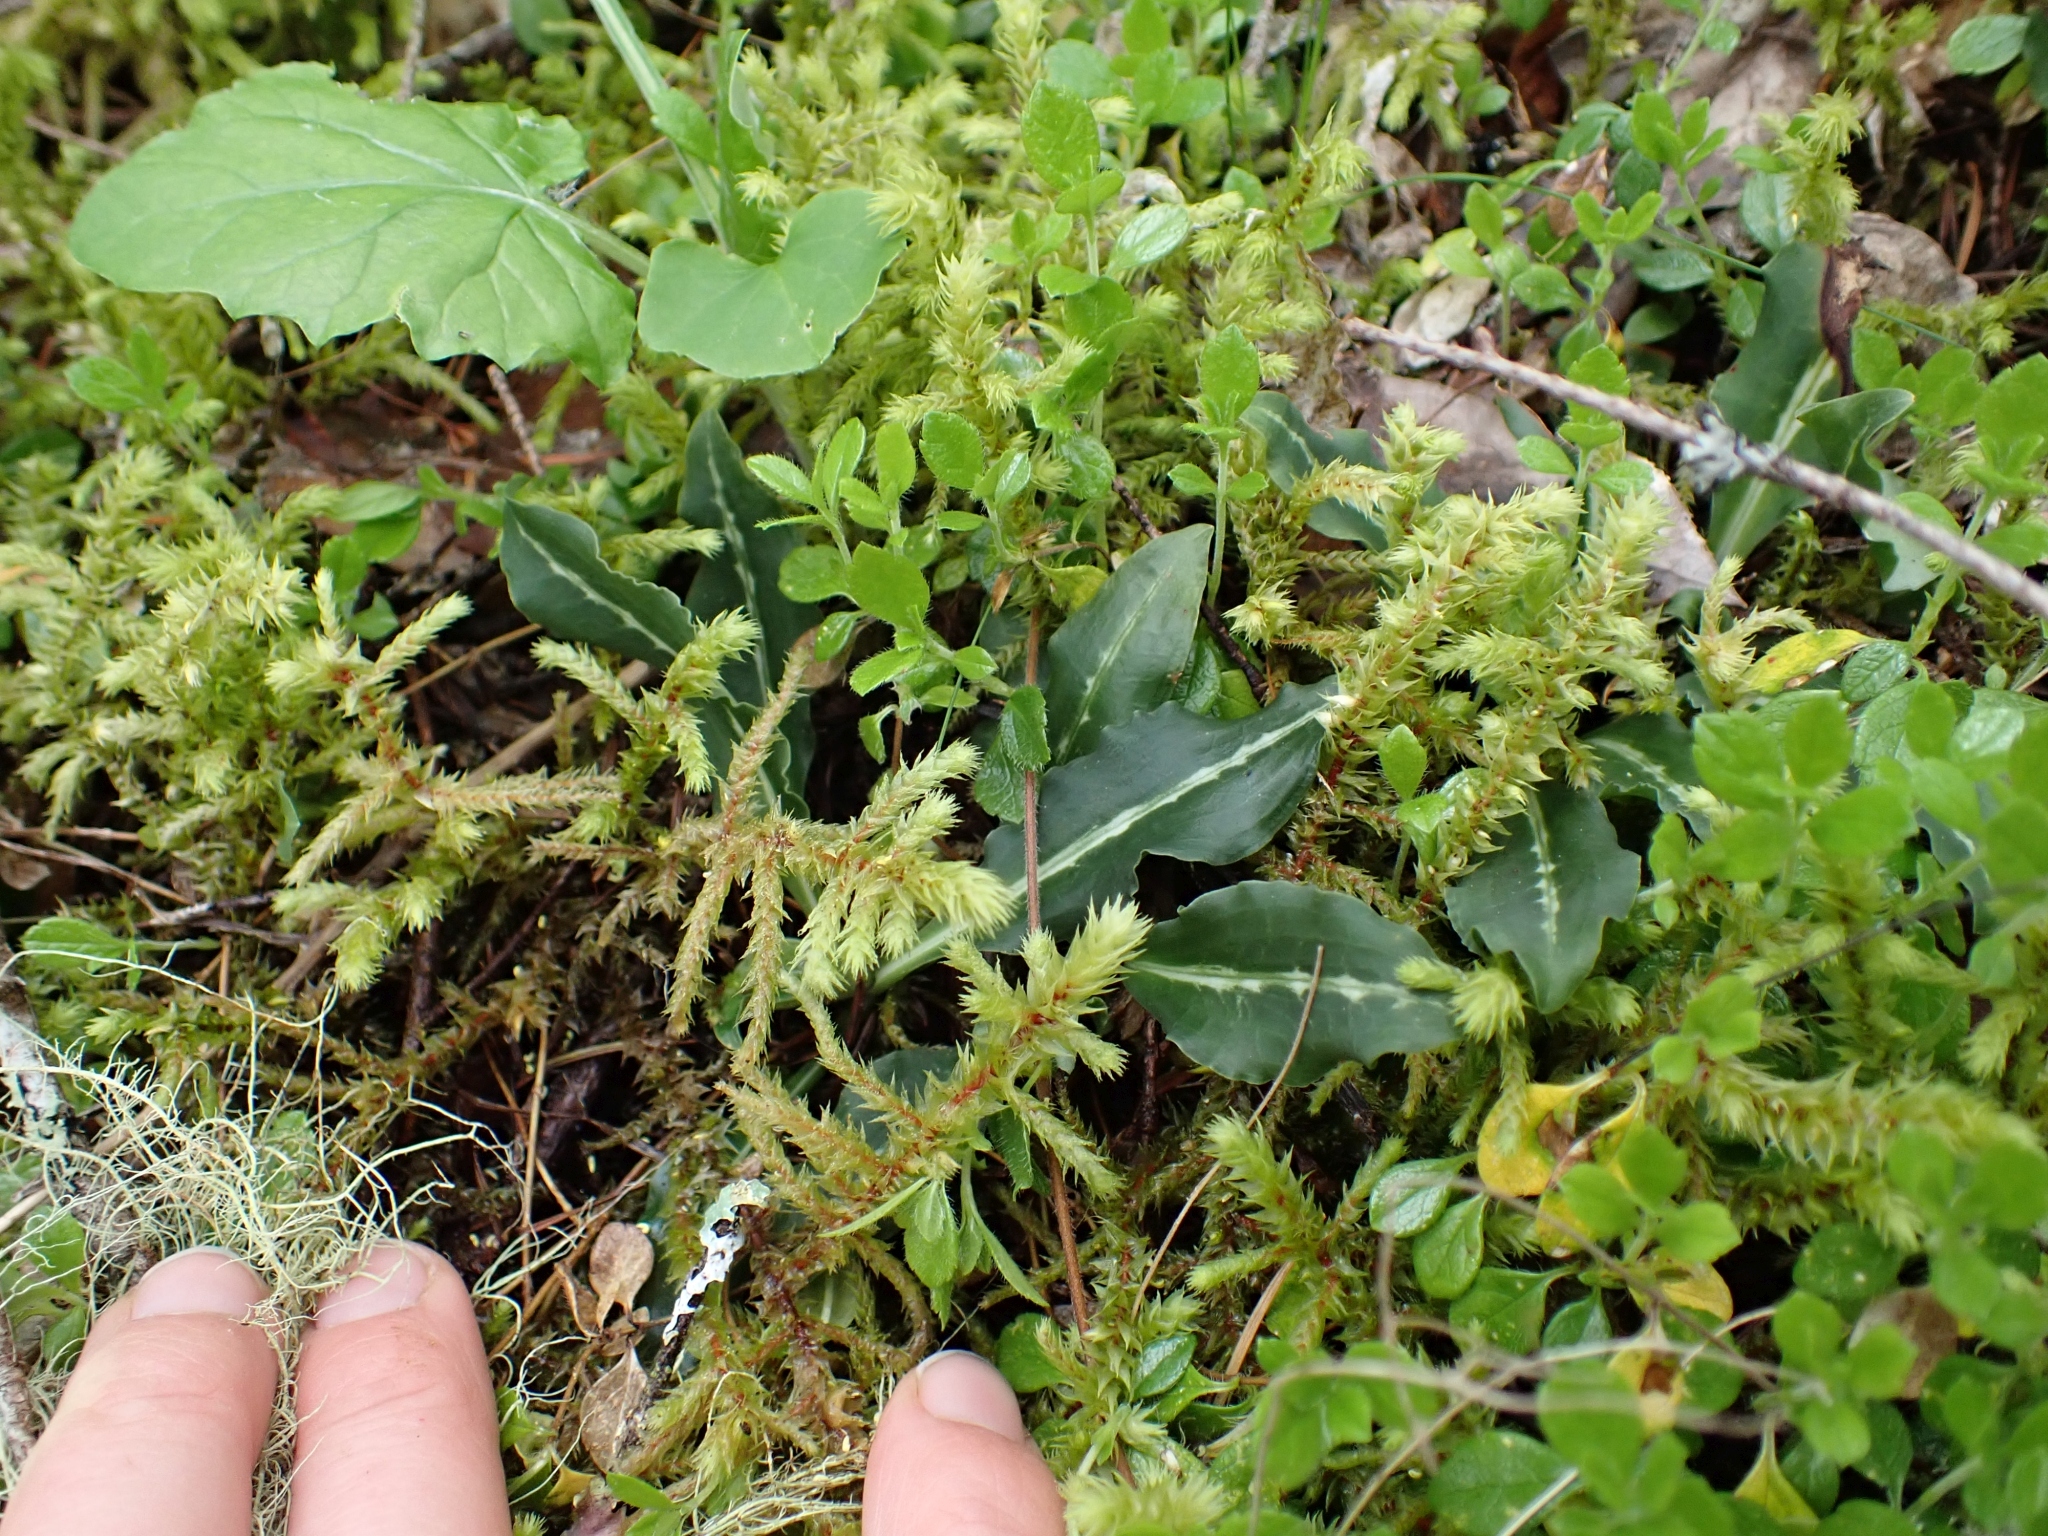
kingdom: Plantae
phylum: Tracheophyta
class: Liliopsida
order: Asparagales
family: Orchidaceae
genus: Goodyera
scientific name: Goodyera oblongifolia
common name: Giant rattlesnake-plantain
